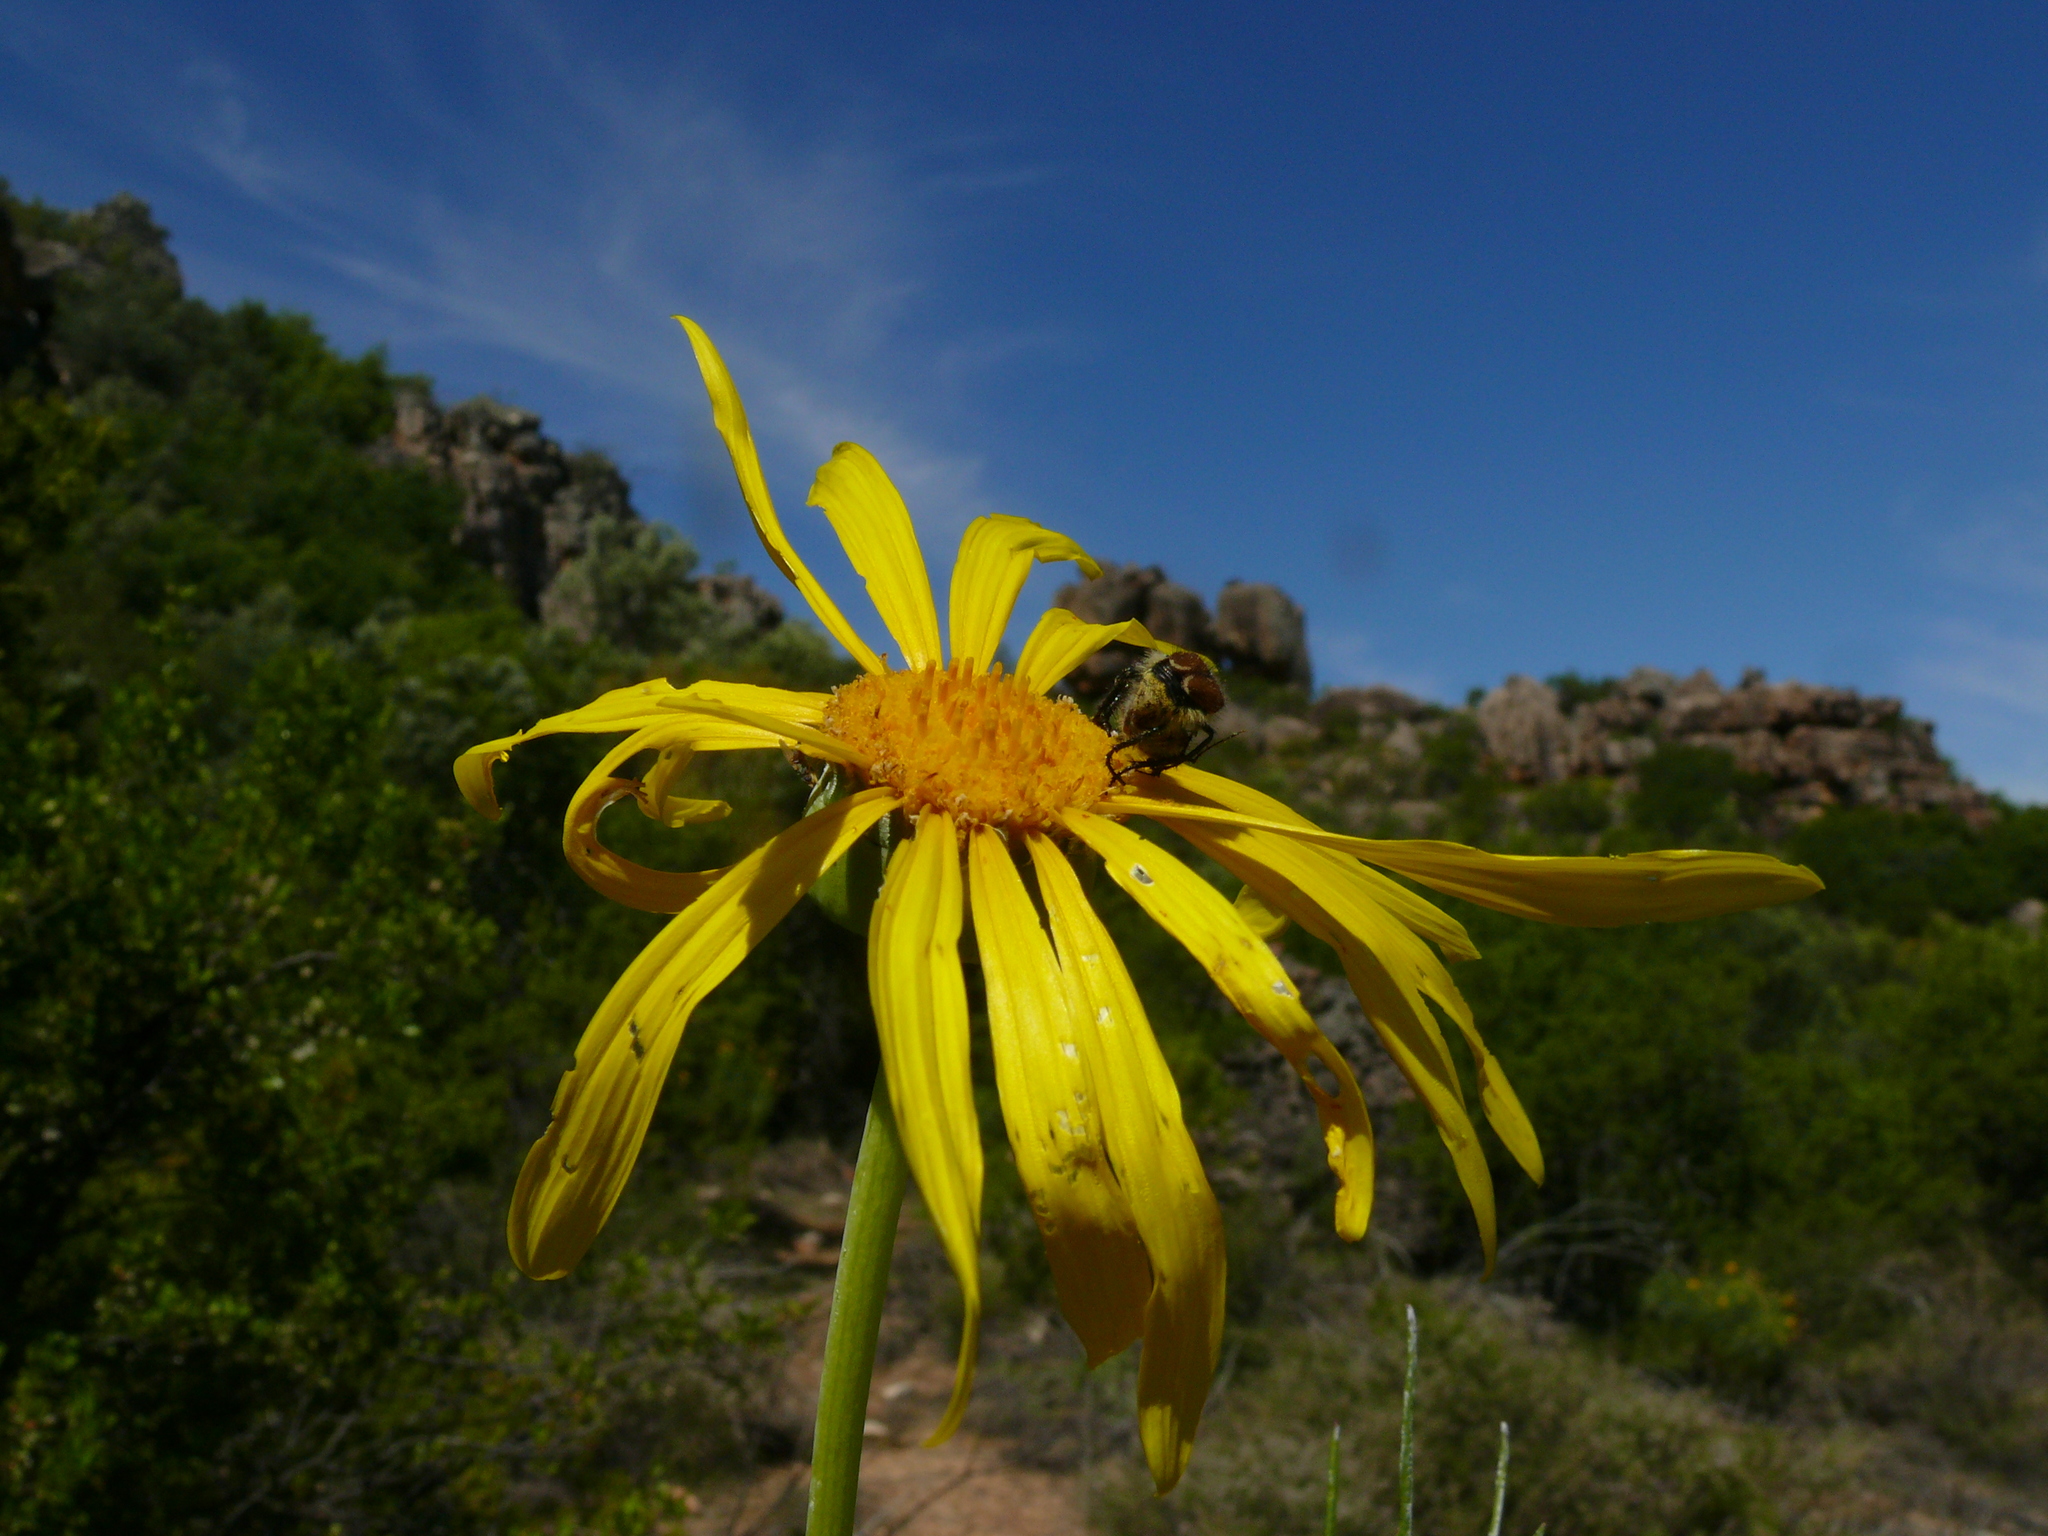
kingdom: Plantae
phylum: Tracheophyta
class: Magnoliopsida
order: Asterales
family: Asteraceae
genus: Euryops
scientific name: Euryops speciosissimus
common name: Clanwilliam daisy
